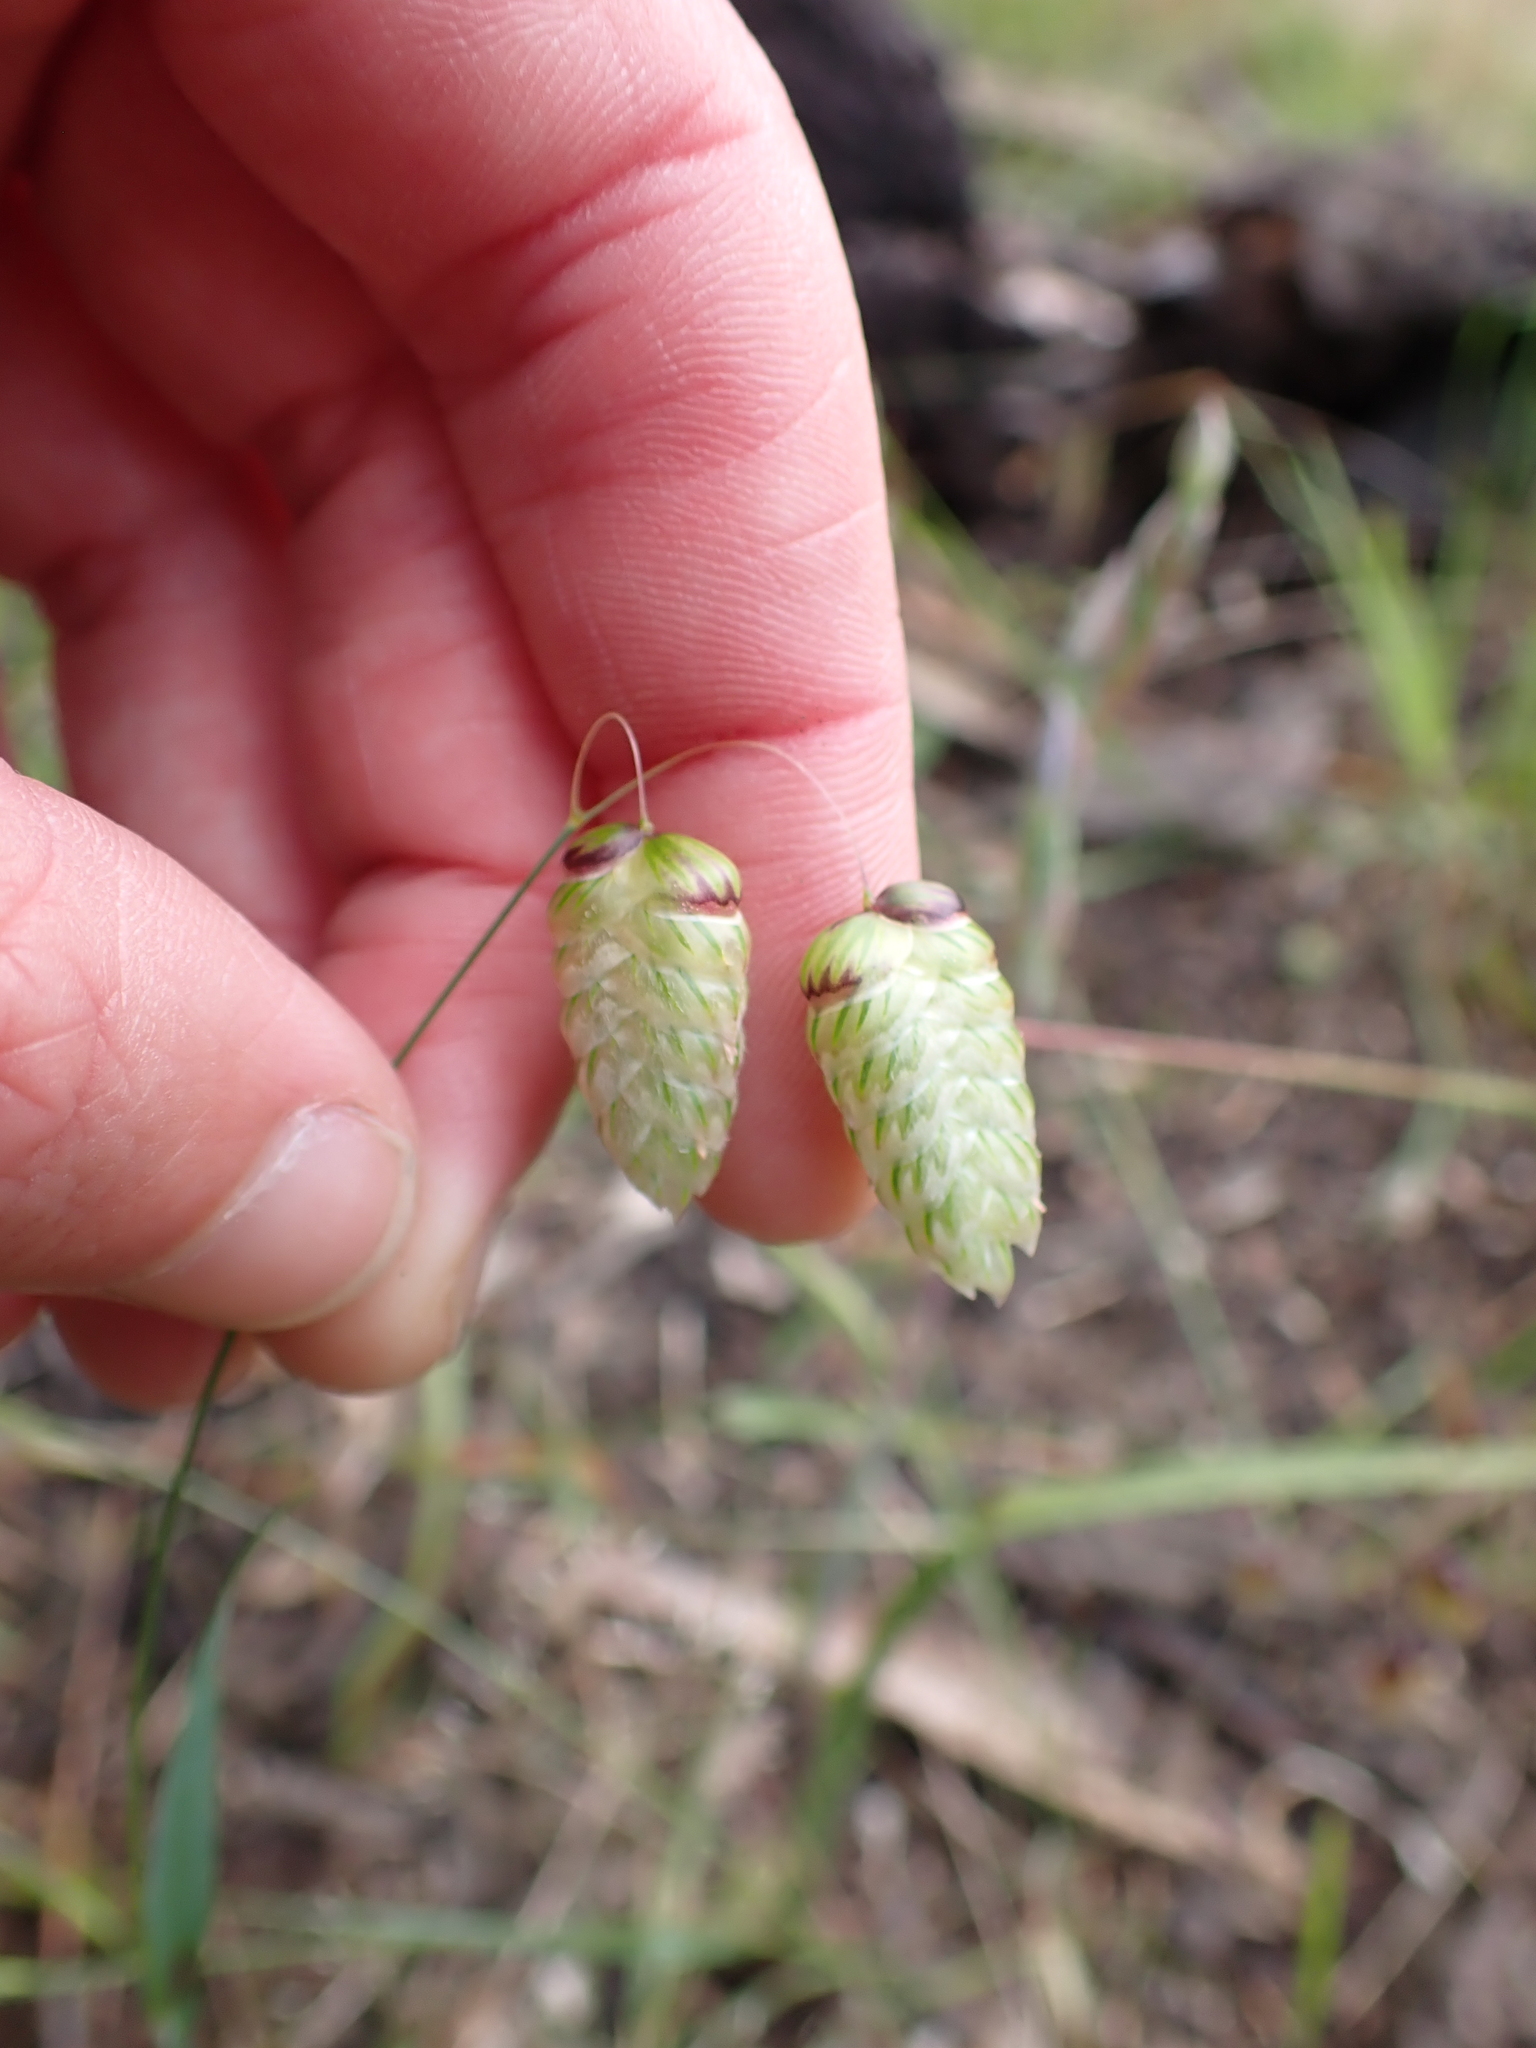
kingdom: Plantae
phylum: Tracheophyta
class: Liliopsida
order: Poales
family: Poaceae
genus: Briza
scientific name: Briza maxima
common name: Big quakinggrass
